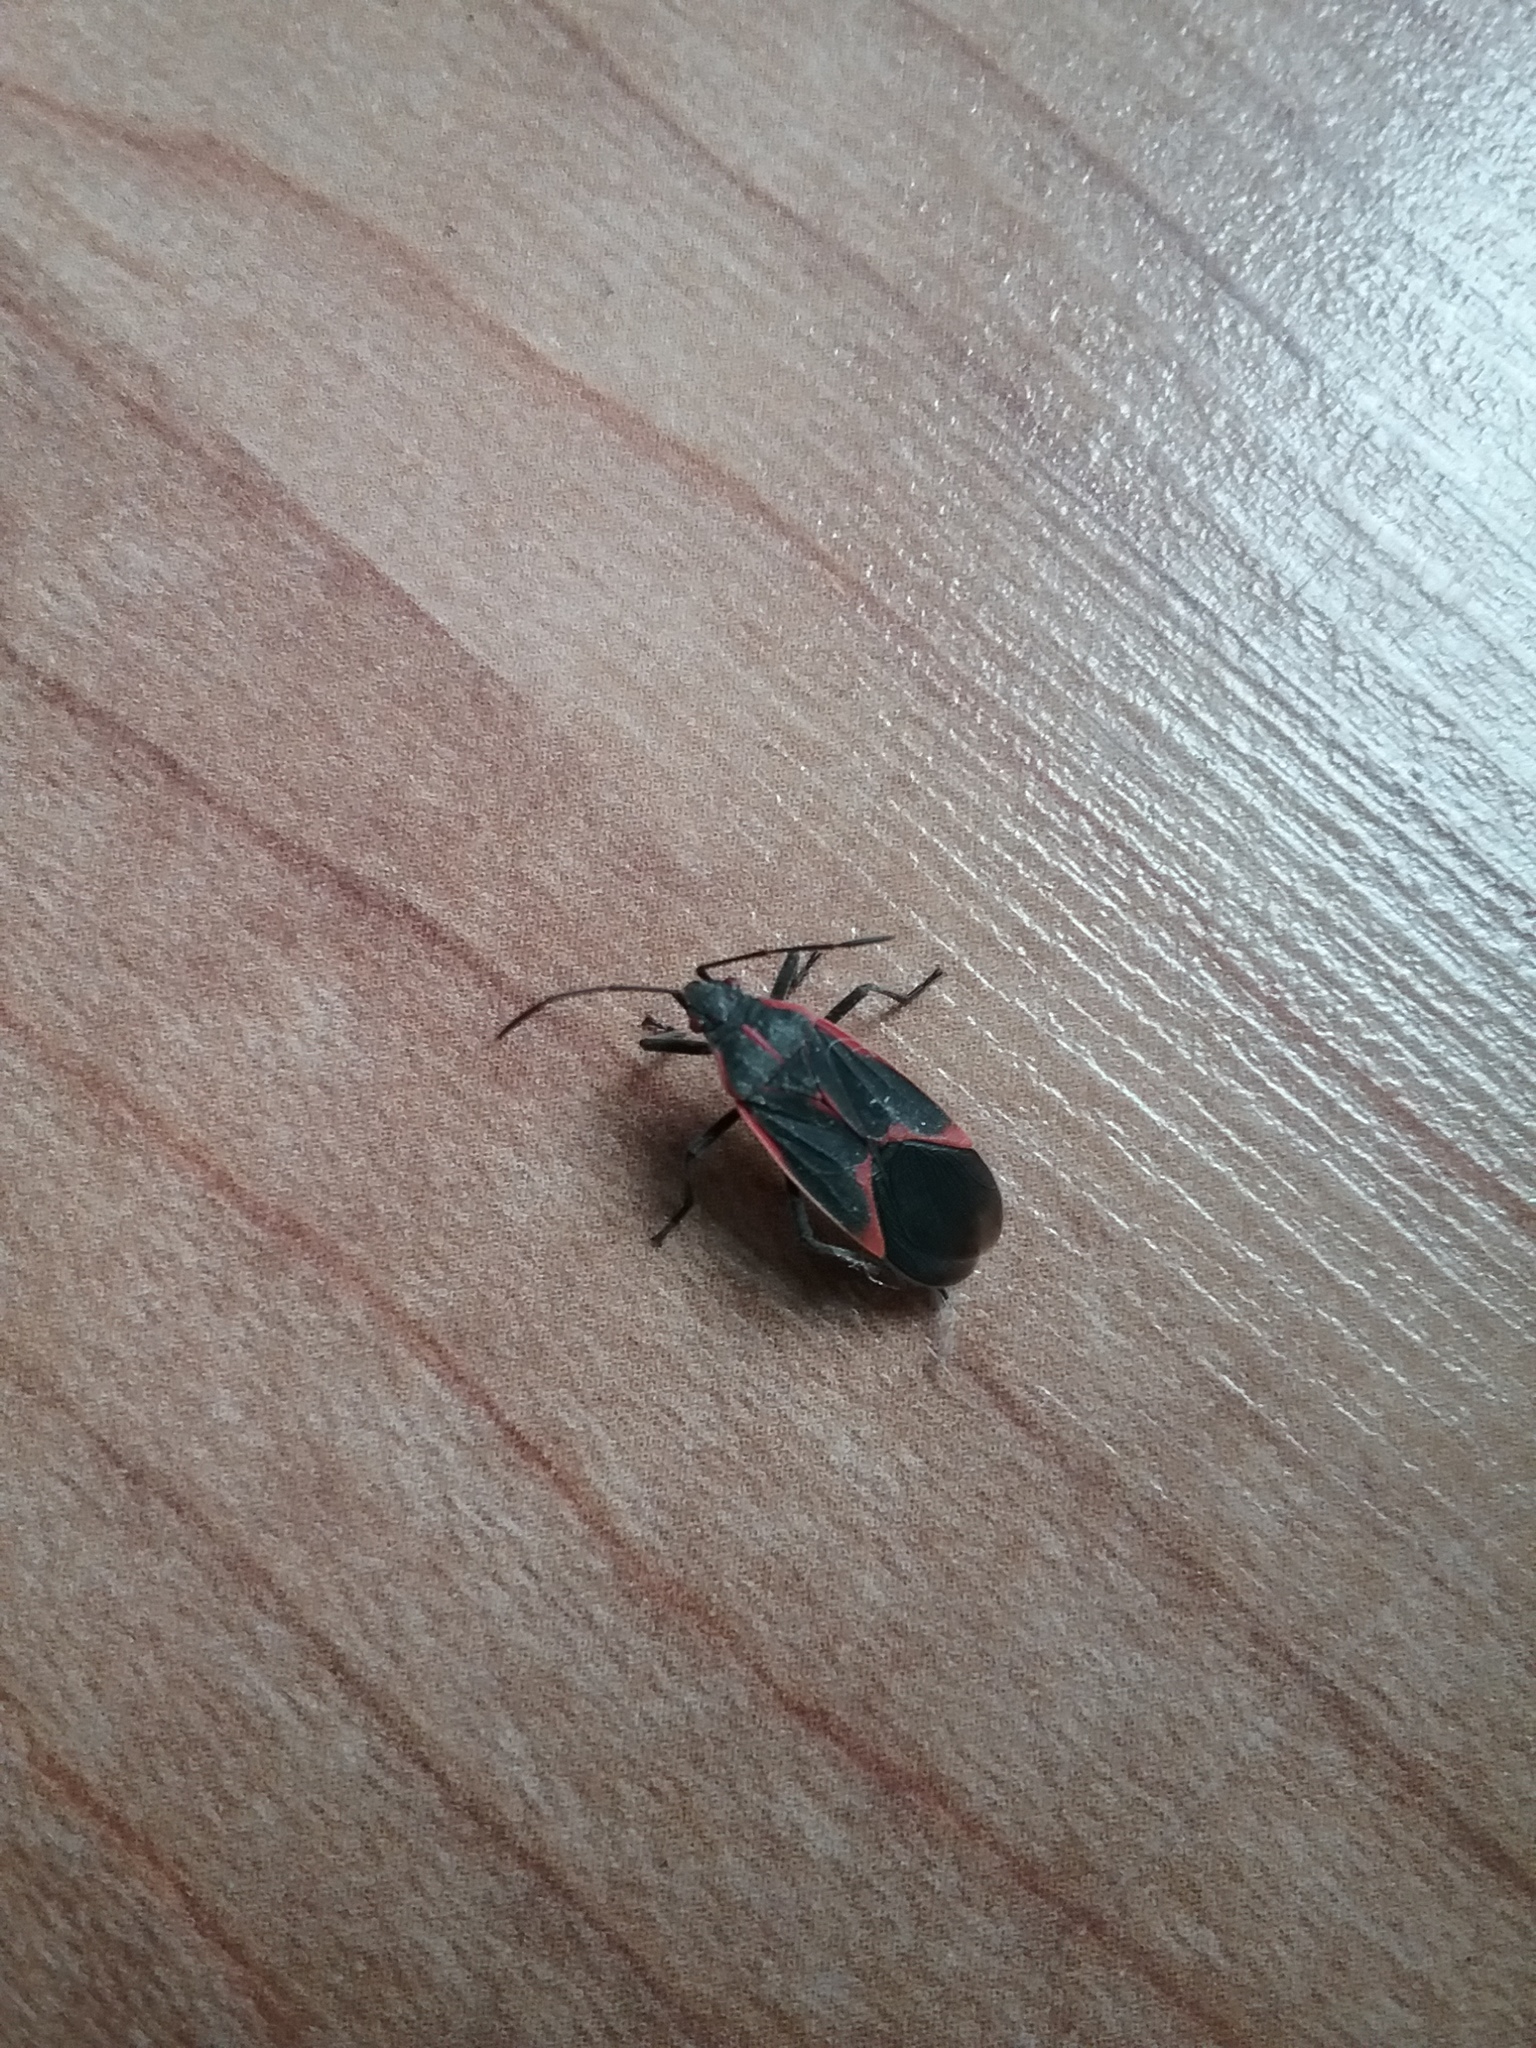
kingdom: Animalia
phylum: Arthropoda
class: Insecta
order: Hemiptera
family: Rhopalidae
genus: Boisea
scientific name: Boisea trivittata
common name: Boxelder bug
